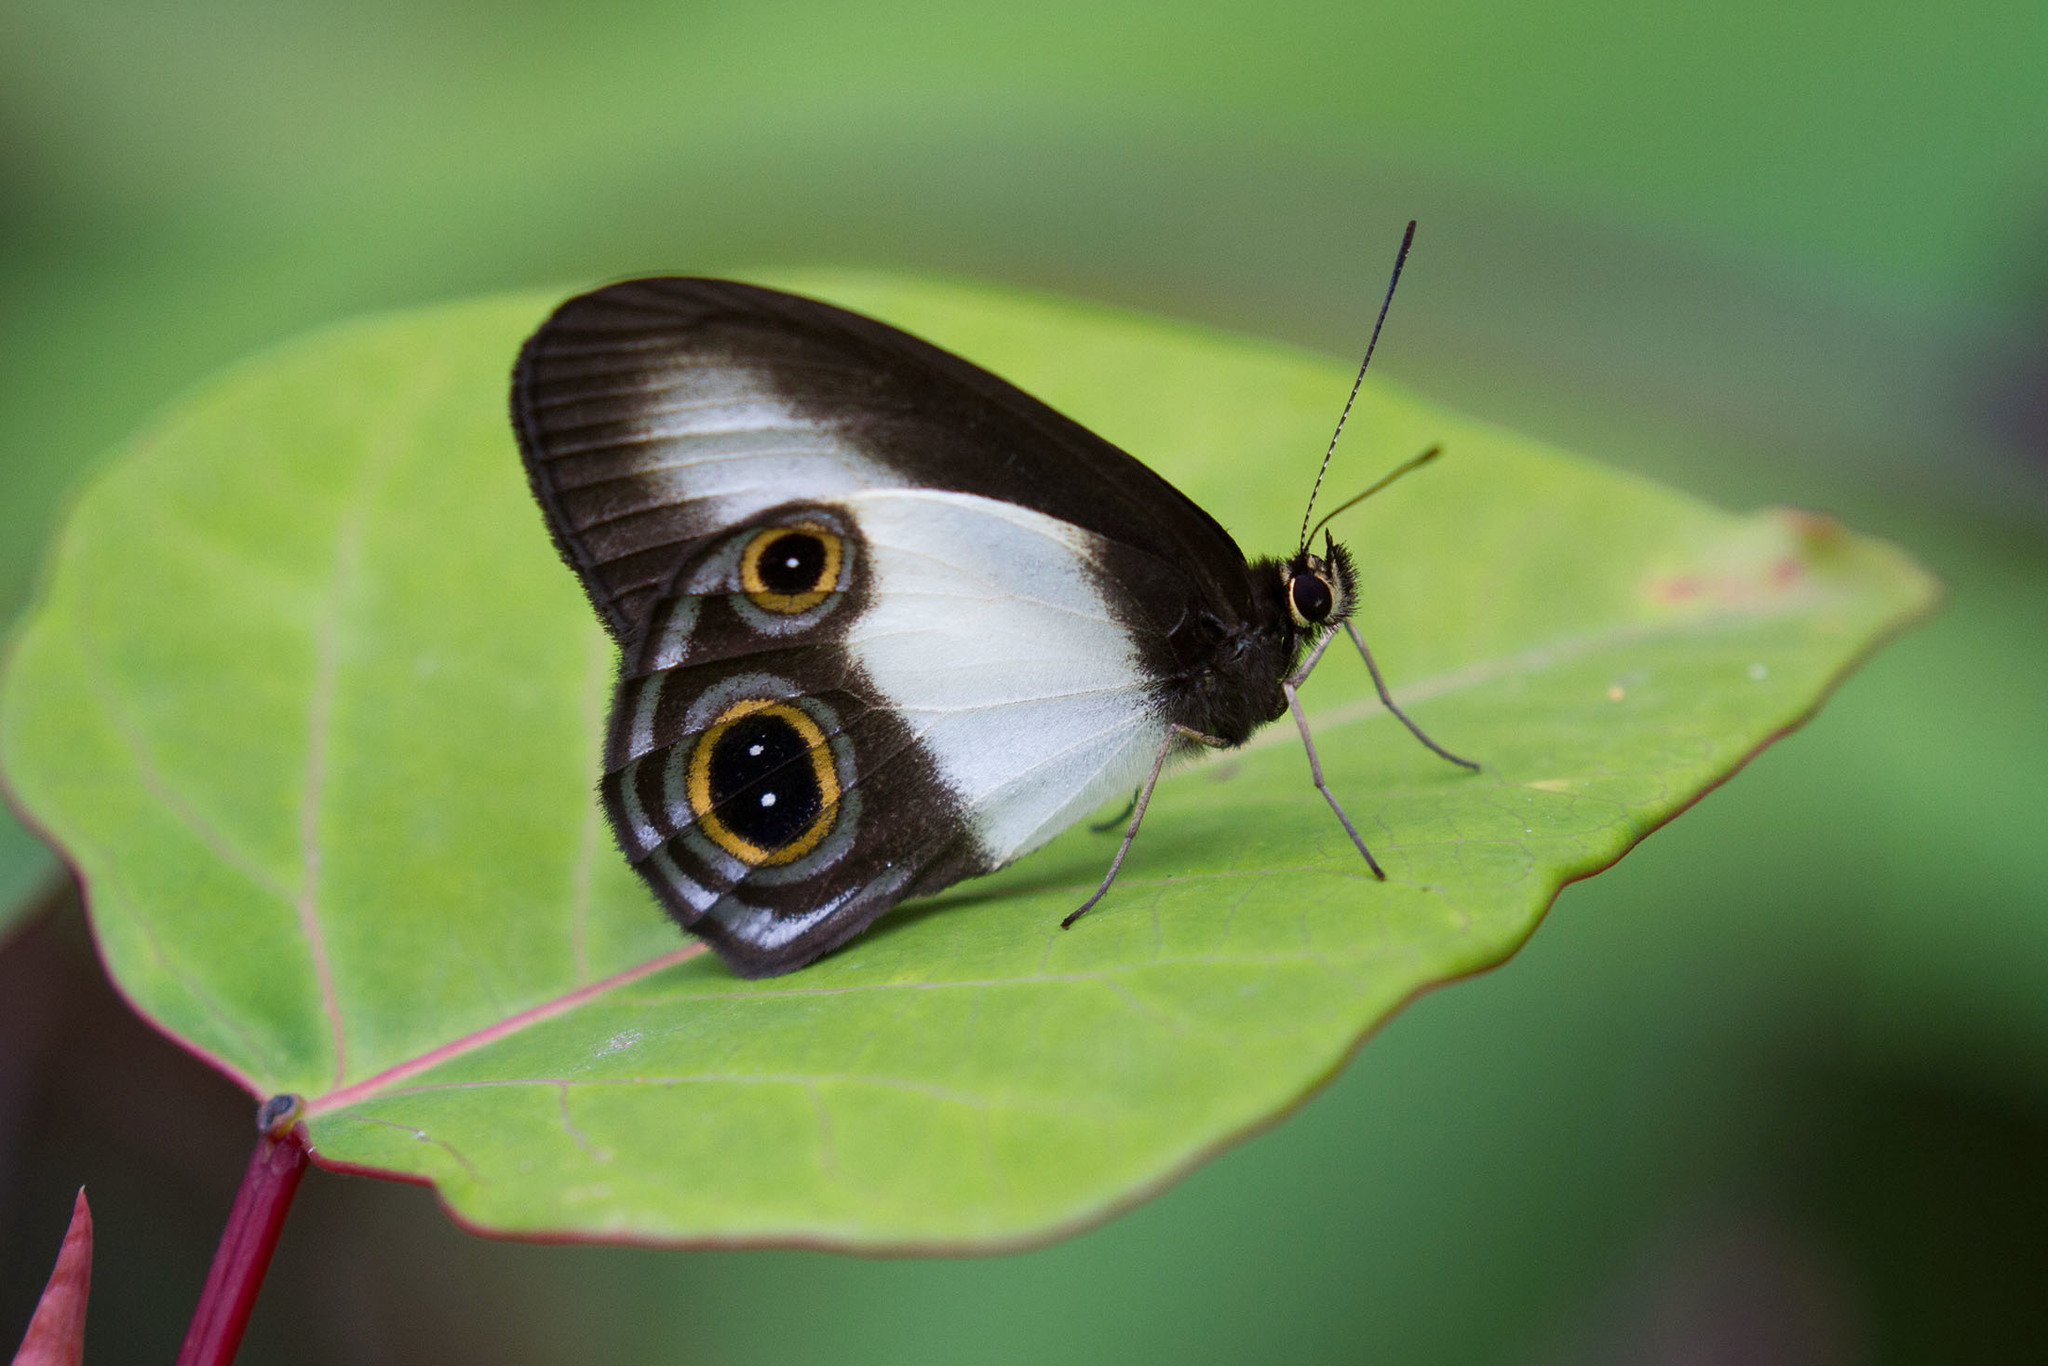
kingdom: Animalia
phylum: Arthropoda
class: Insecta
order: Lepidoptera
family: Nymphalidae
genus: Hypocysta
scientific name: Hypocysta aroa
